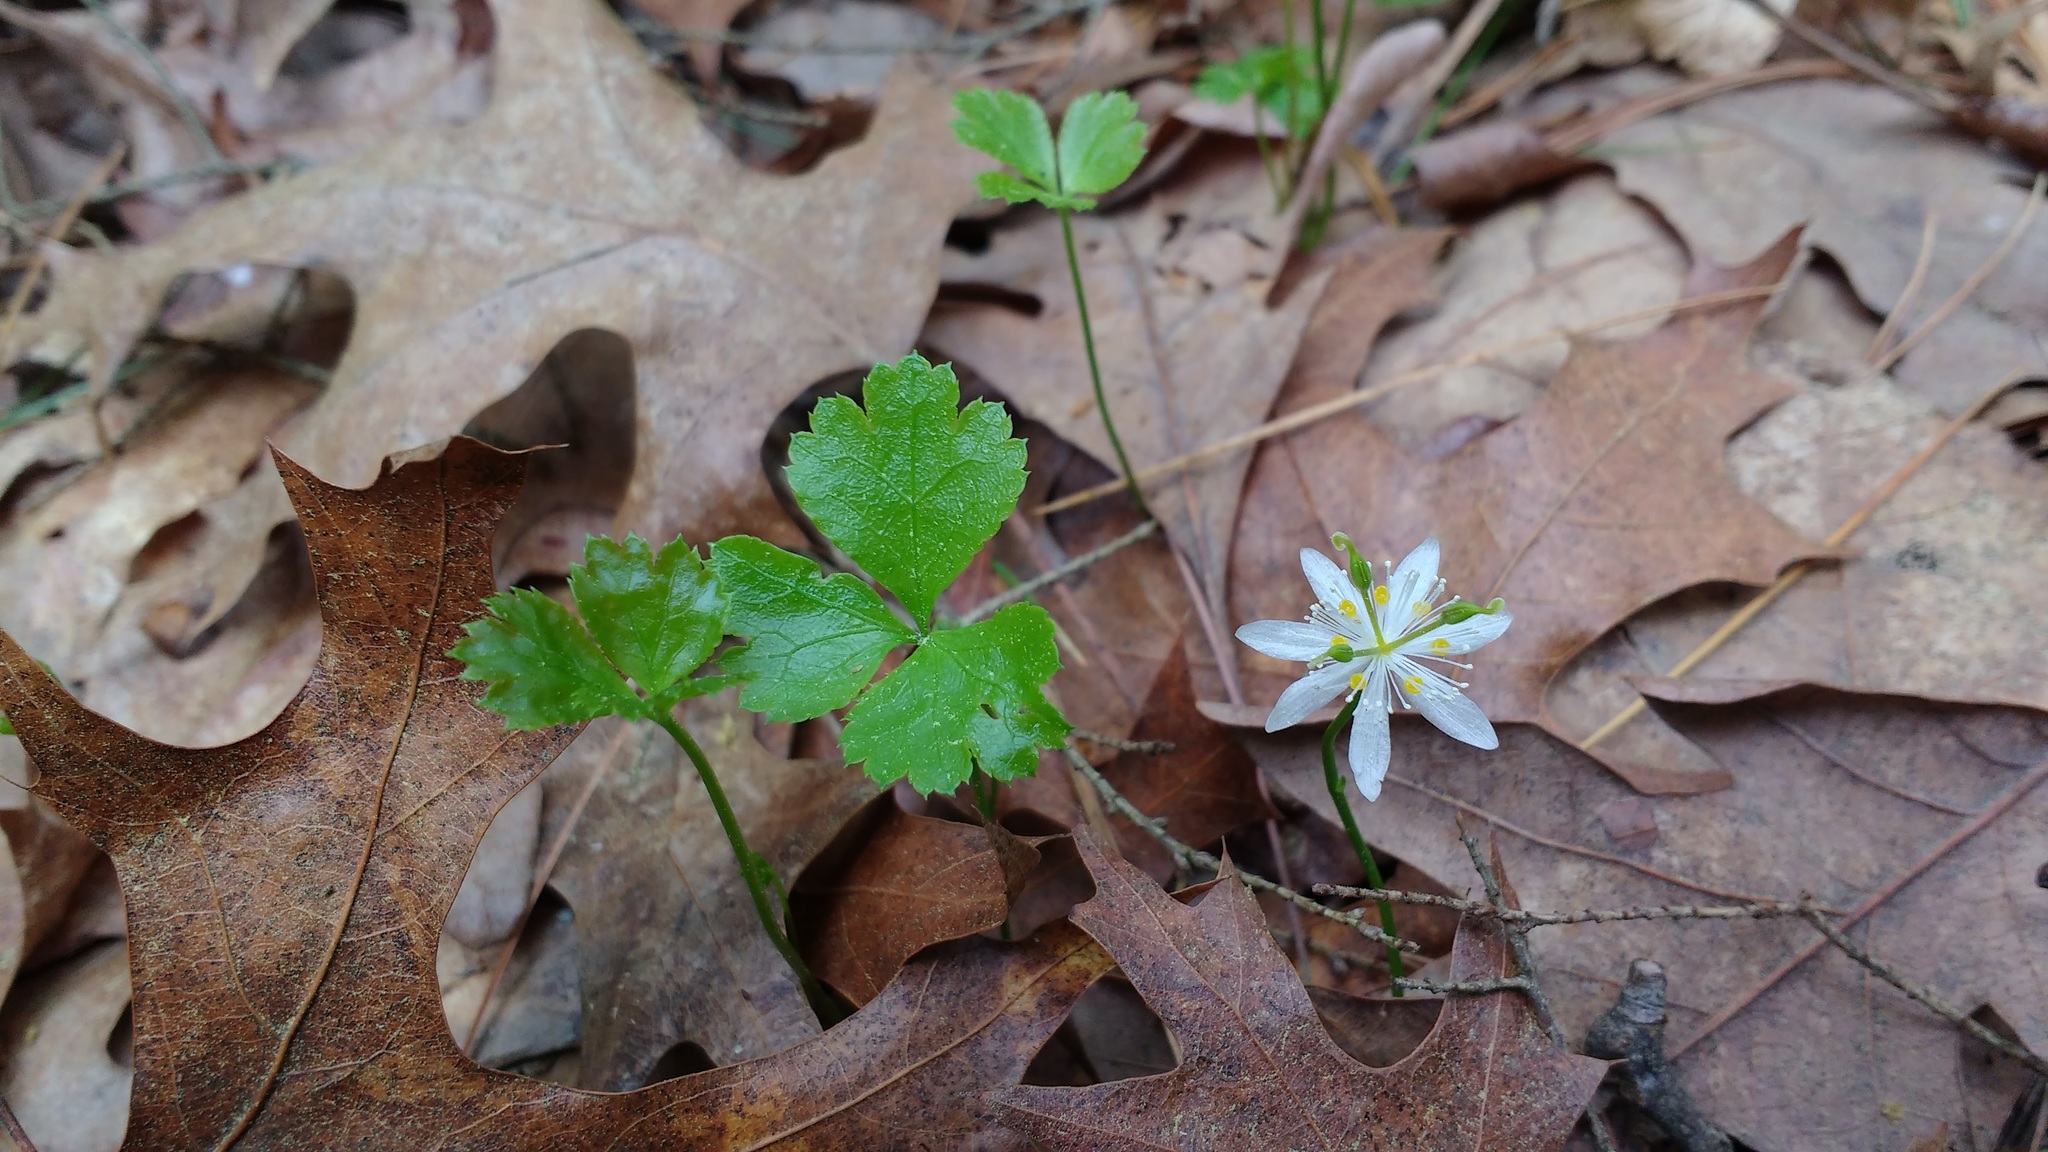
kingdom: Plantae
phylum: Tracheophyta
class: Magnoliopsida
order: Ranunculales
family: Ranunculaceae
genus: Coptis
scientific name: Coptis trifolia
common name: Canker-root
